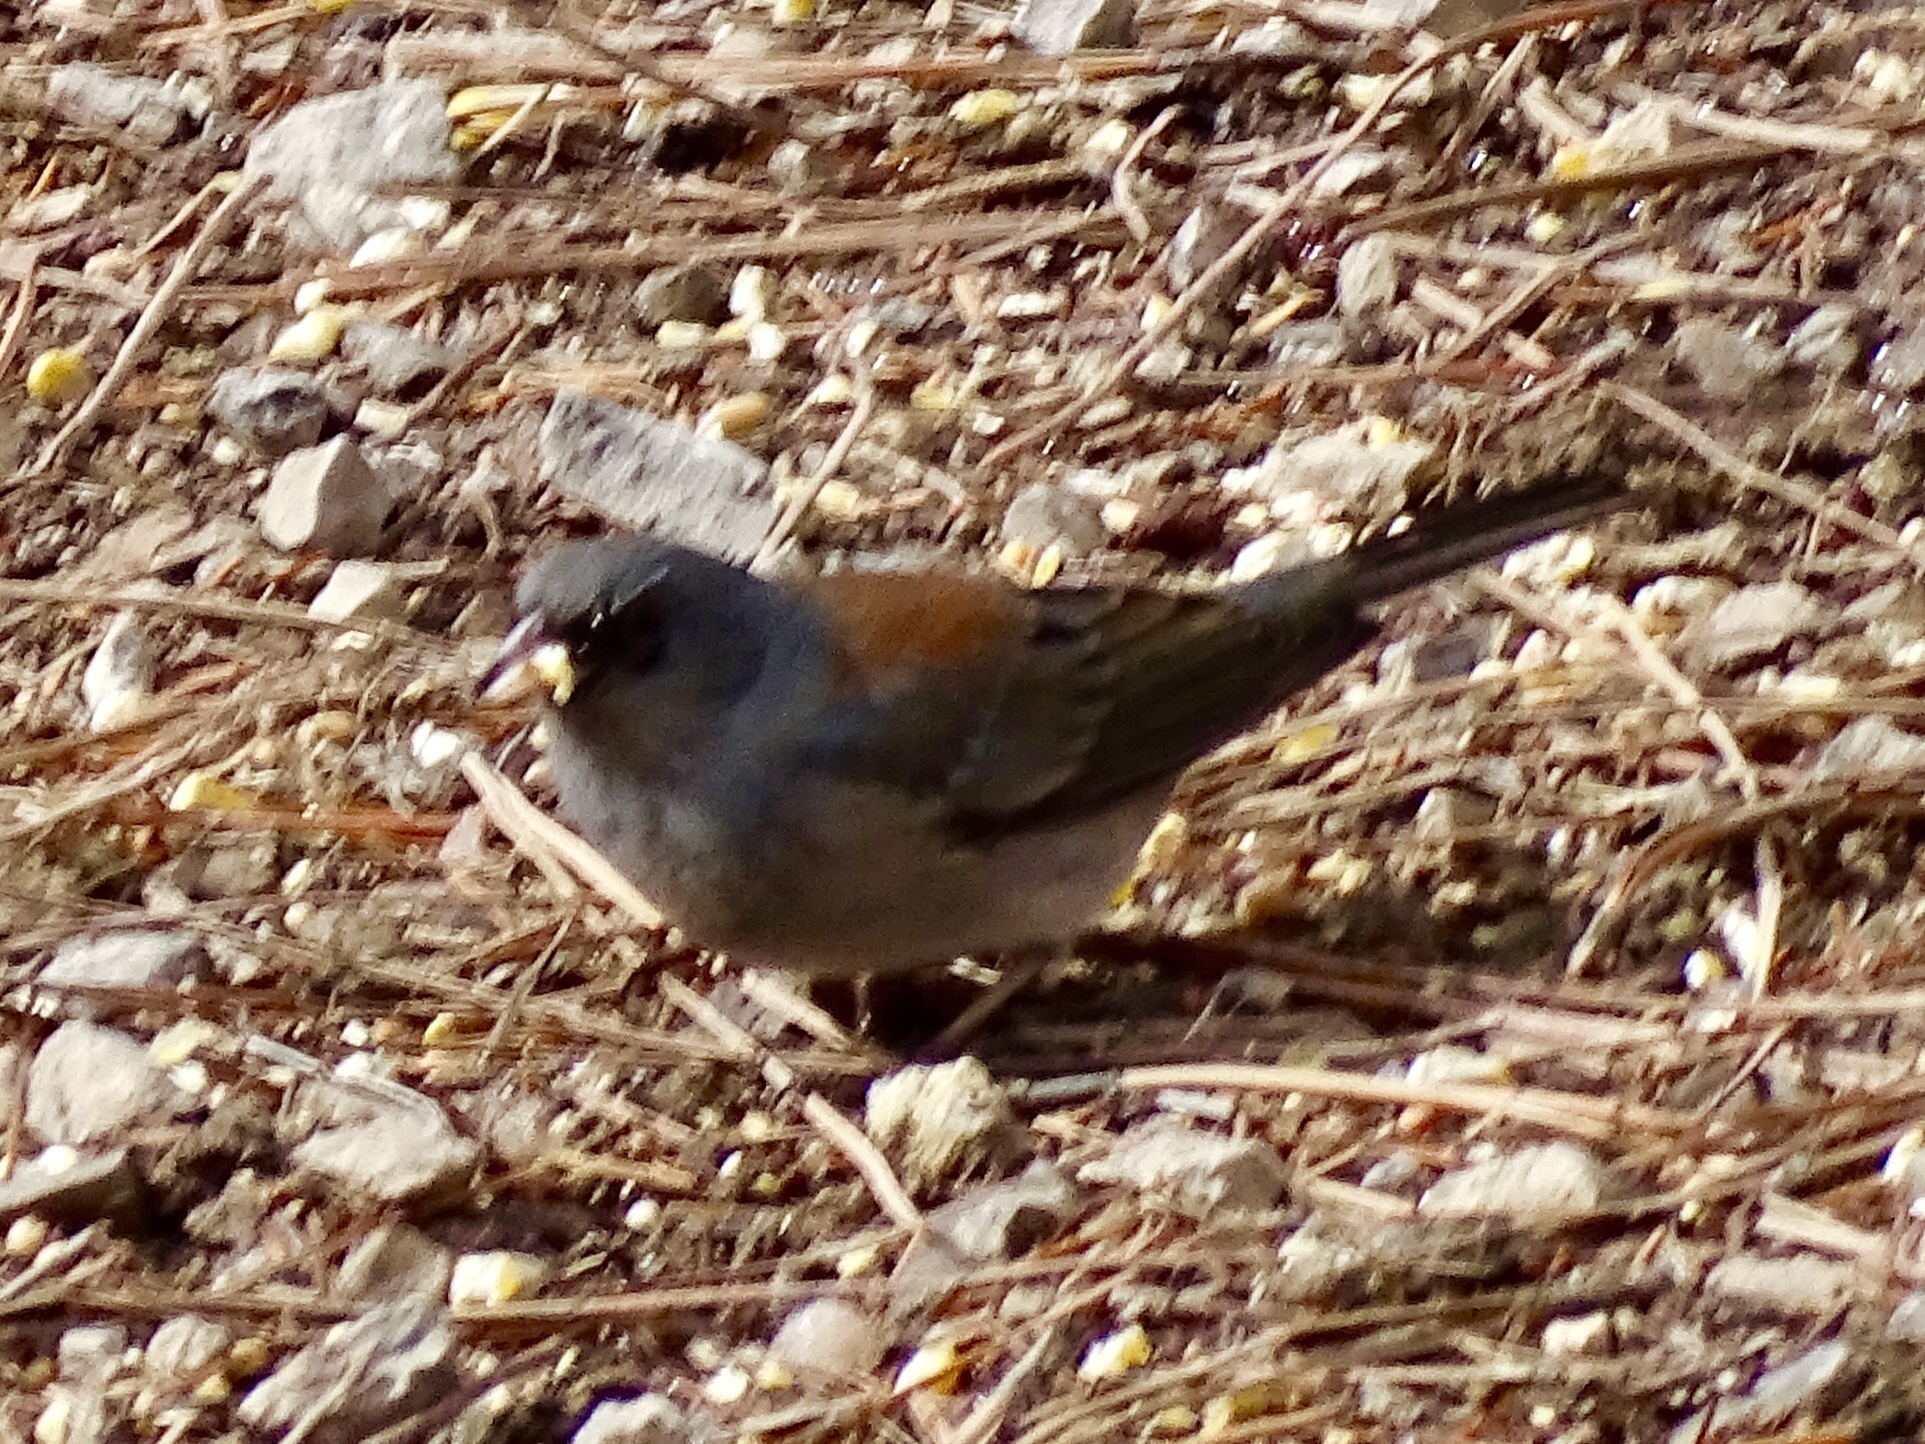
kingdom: Animalia
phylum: Chordata
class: Aves
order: Passeriformes
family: Passerellidae
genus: Junco
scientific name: Junco hyemalis
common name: Dark-eyed junco
